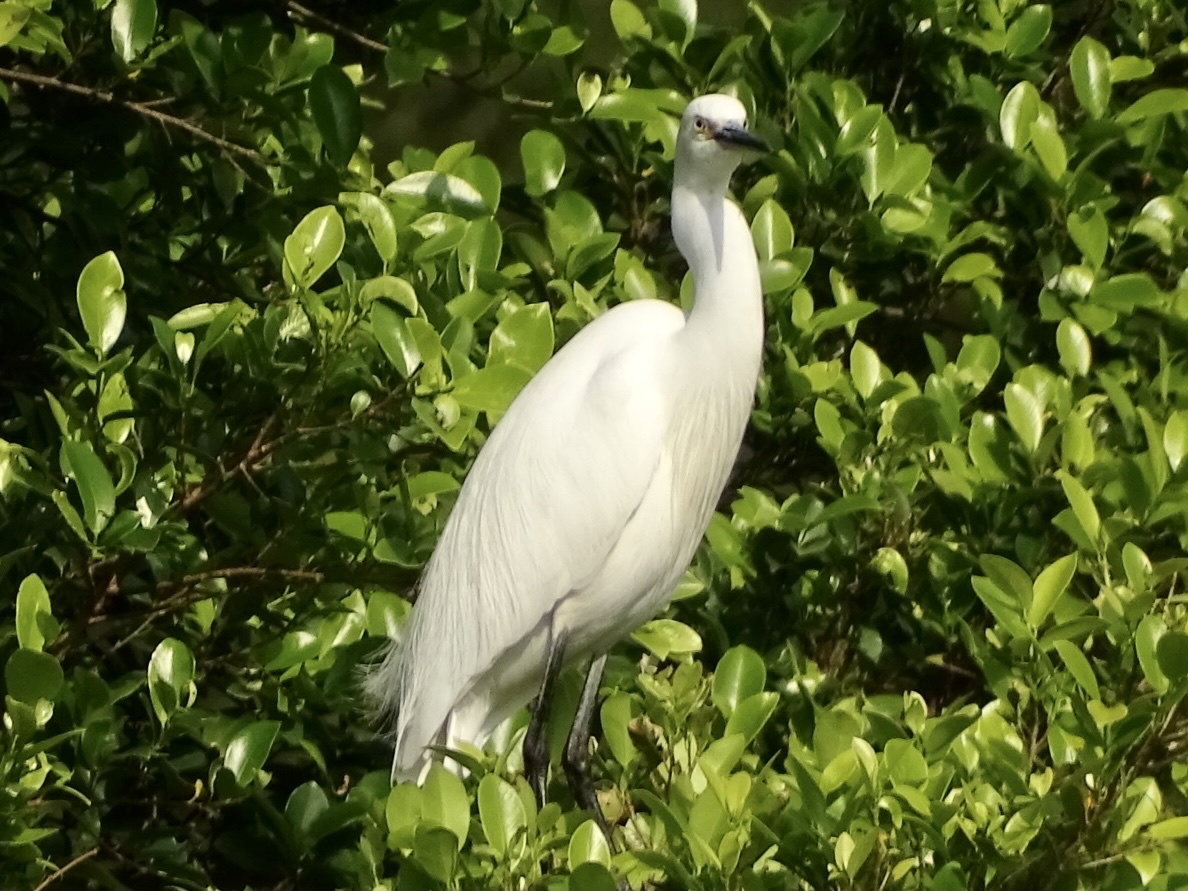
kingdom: Animalia
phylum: Chordata
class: Aves
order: Pelecaniformes
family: Ardeidae
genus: Egretta
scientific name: Egretta garzetta
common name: Little egret
